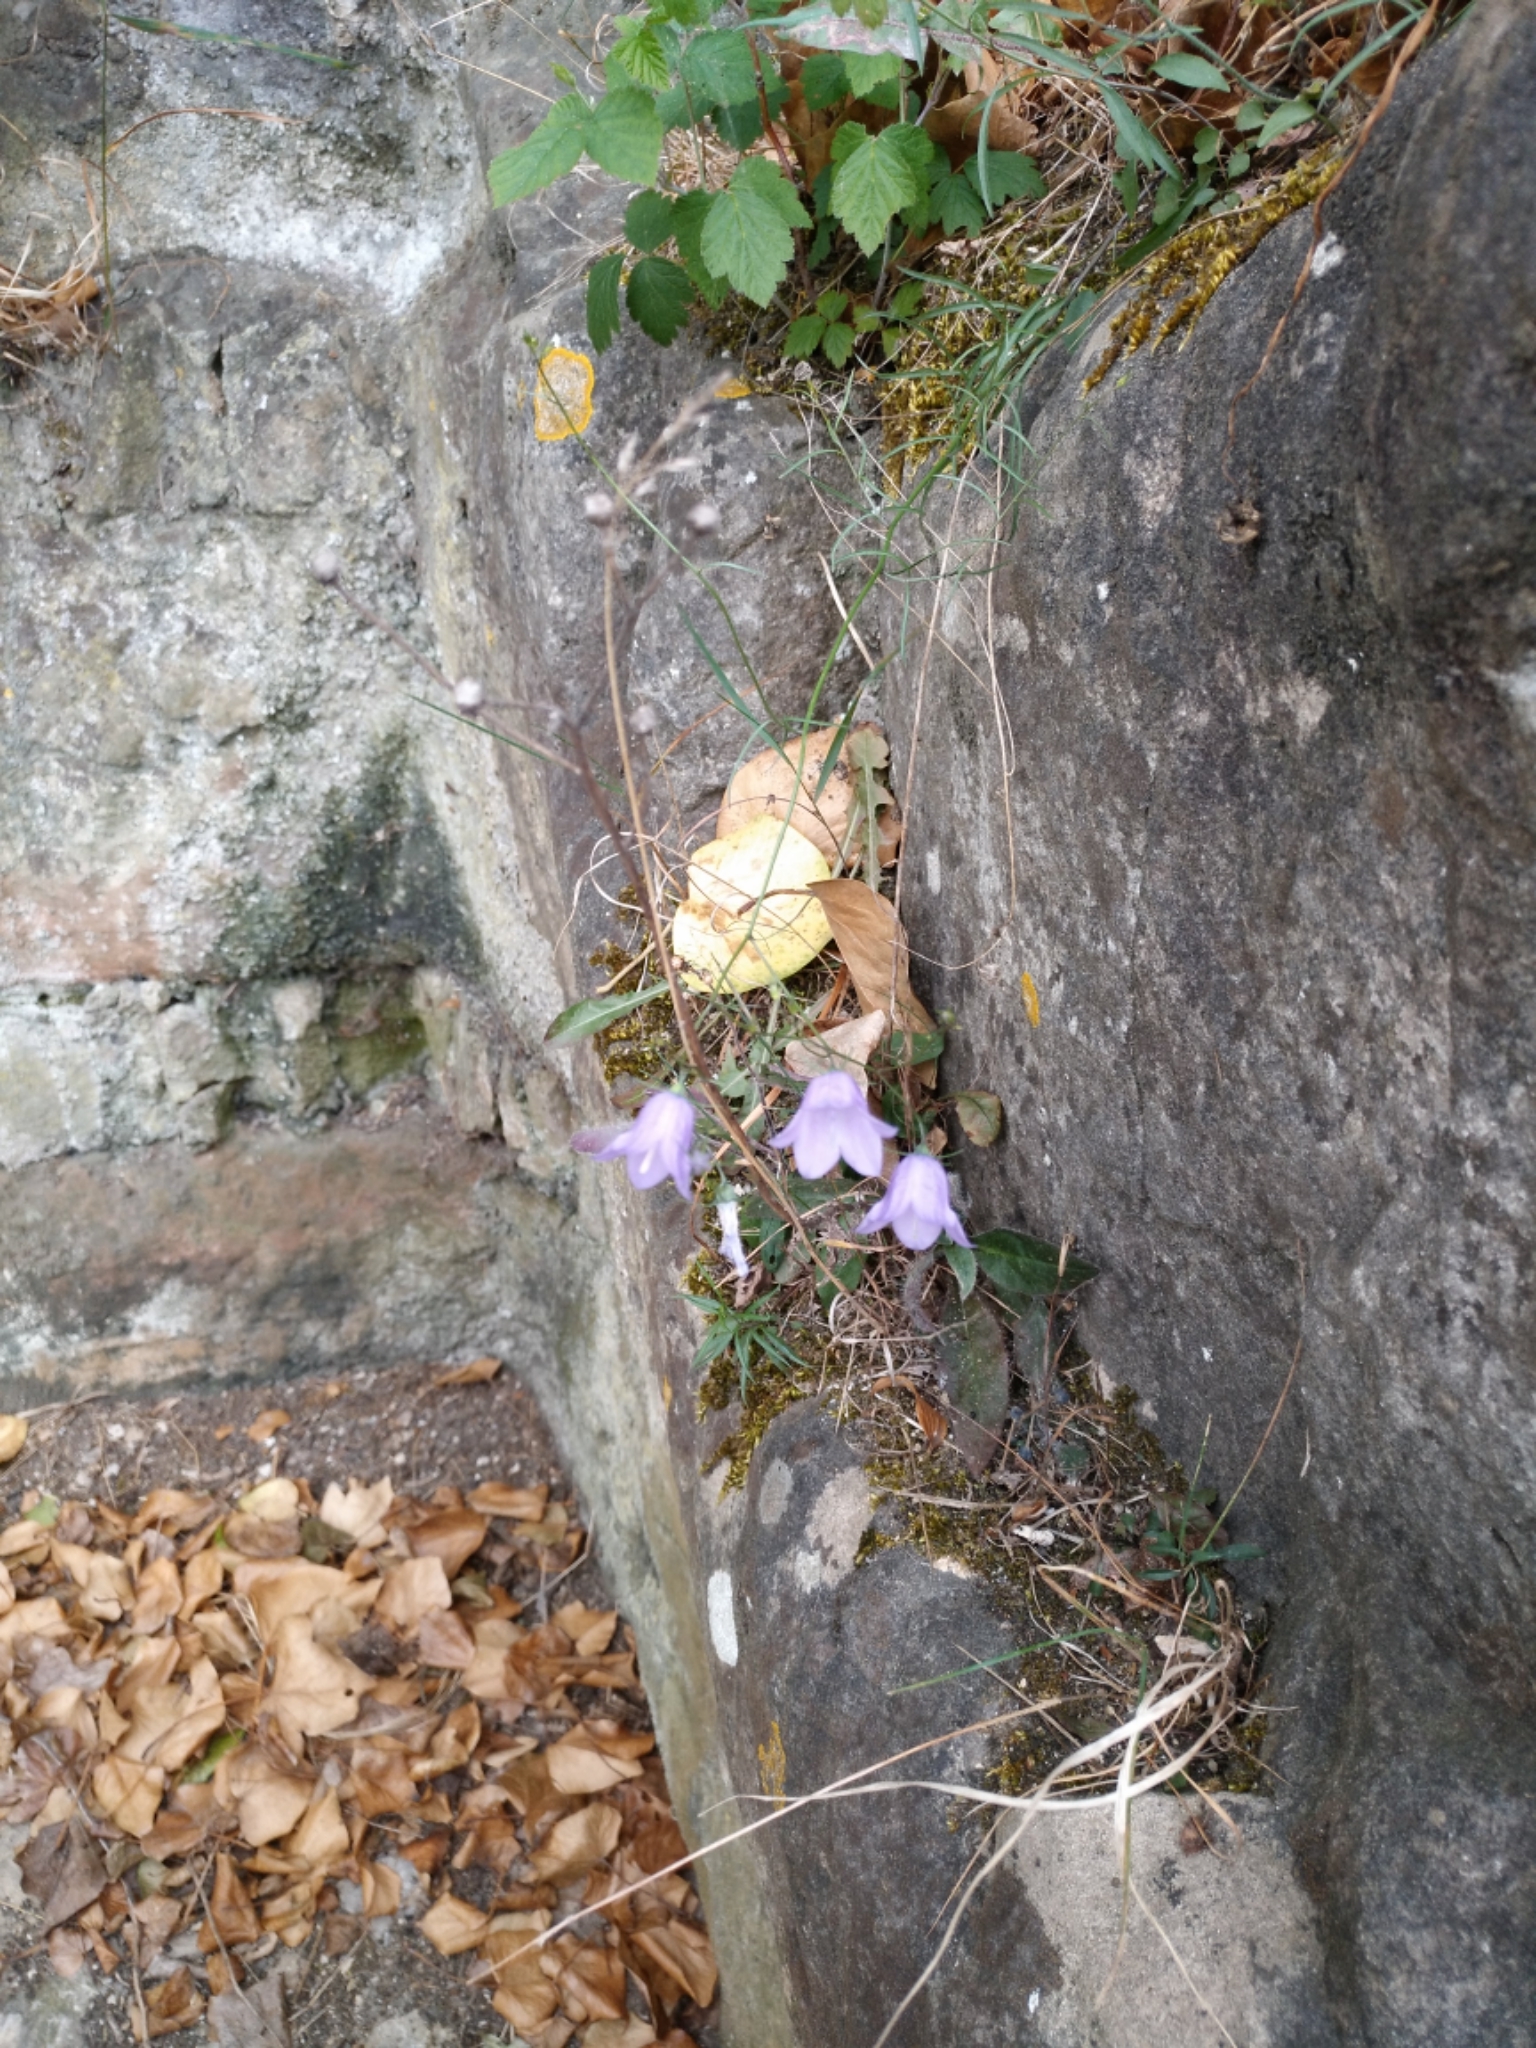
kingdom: Plantae
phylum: Tracheophyta
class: Magnoliopsida
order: Asterales
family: Campanulaceae
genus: Campanula
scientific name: Campanula rotundifolia
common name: Harebell
